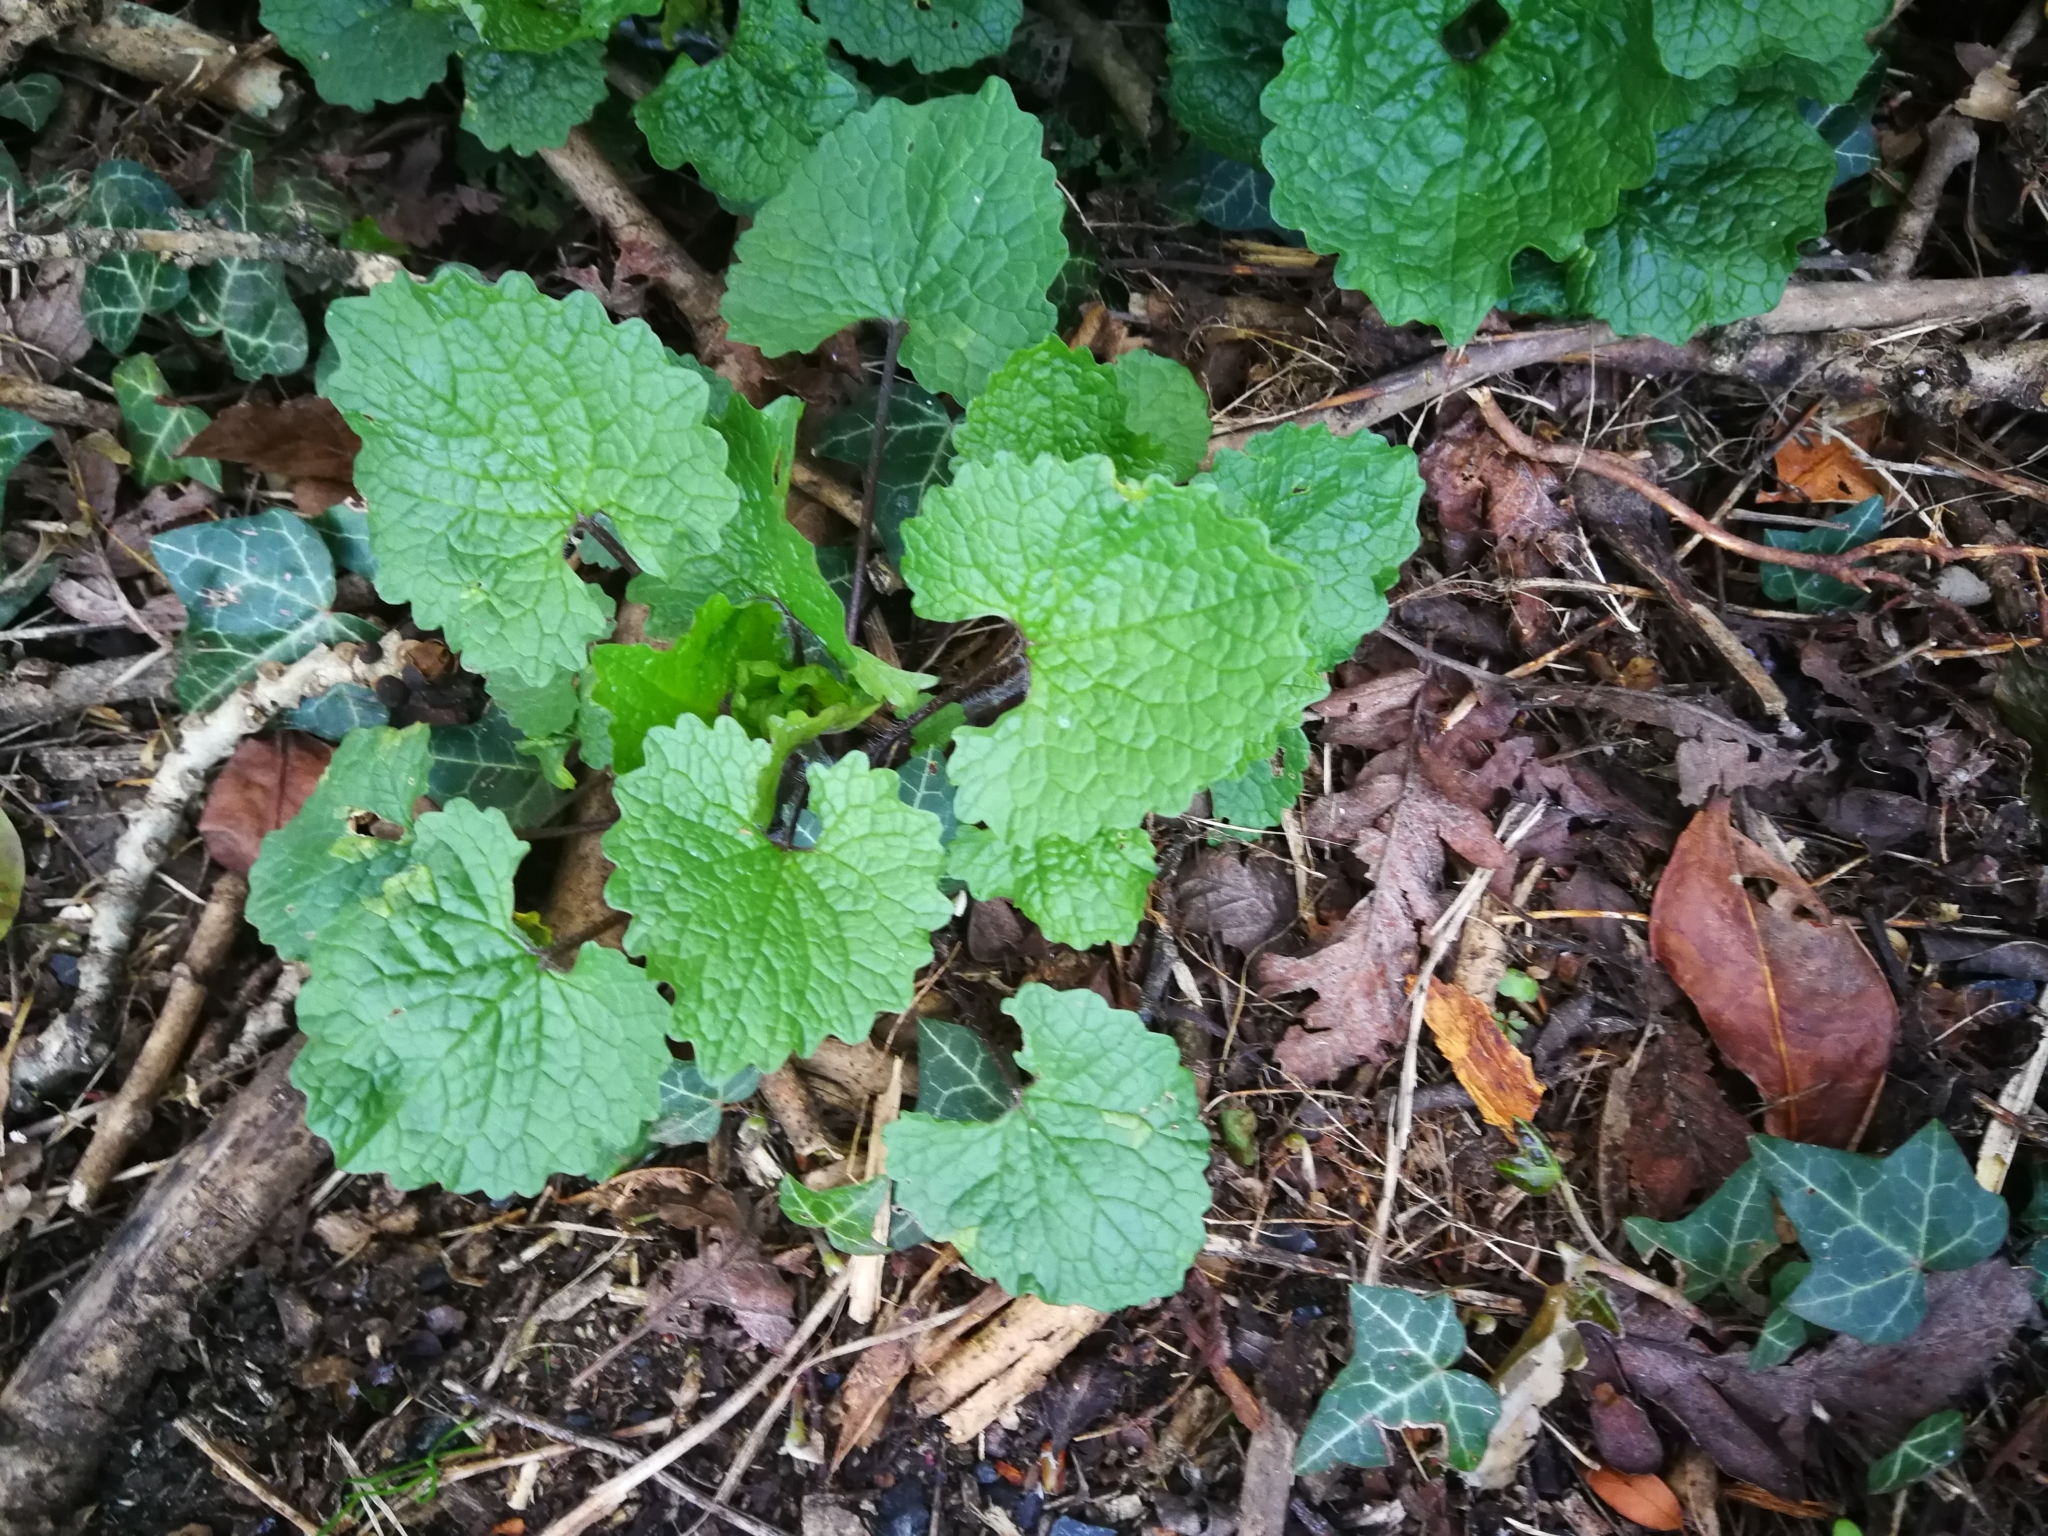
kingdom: Plantae
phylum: Tracheophyta
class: Magnoliopsida
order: Brassicales
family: Brassicaceae
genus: Alliaria
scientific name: Alliaria petiolata
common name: Garlic mustard
